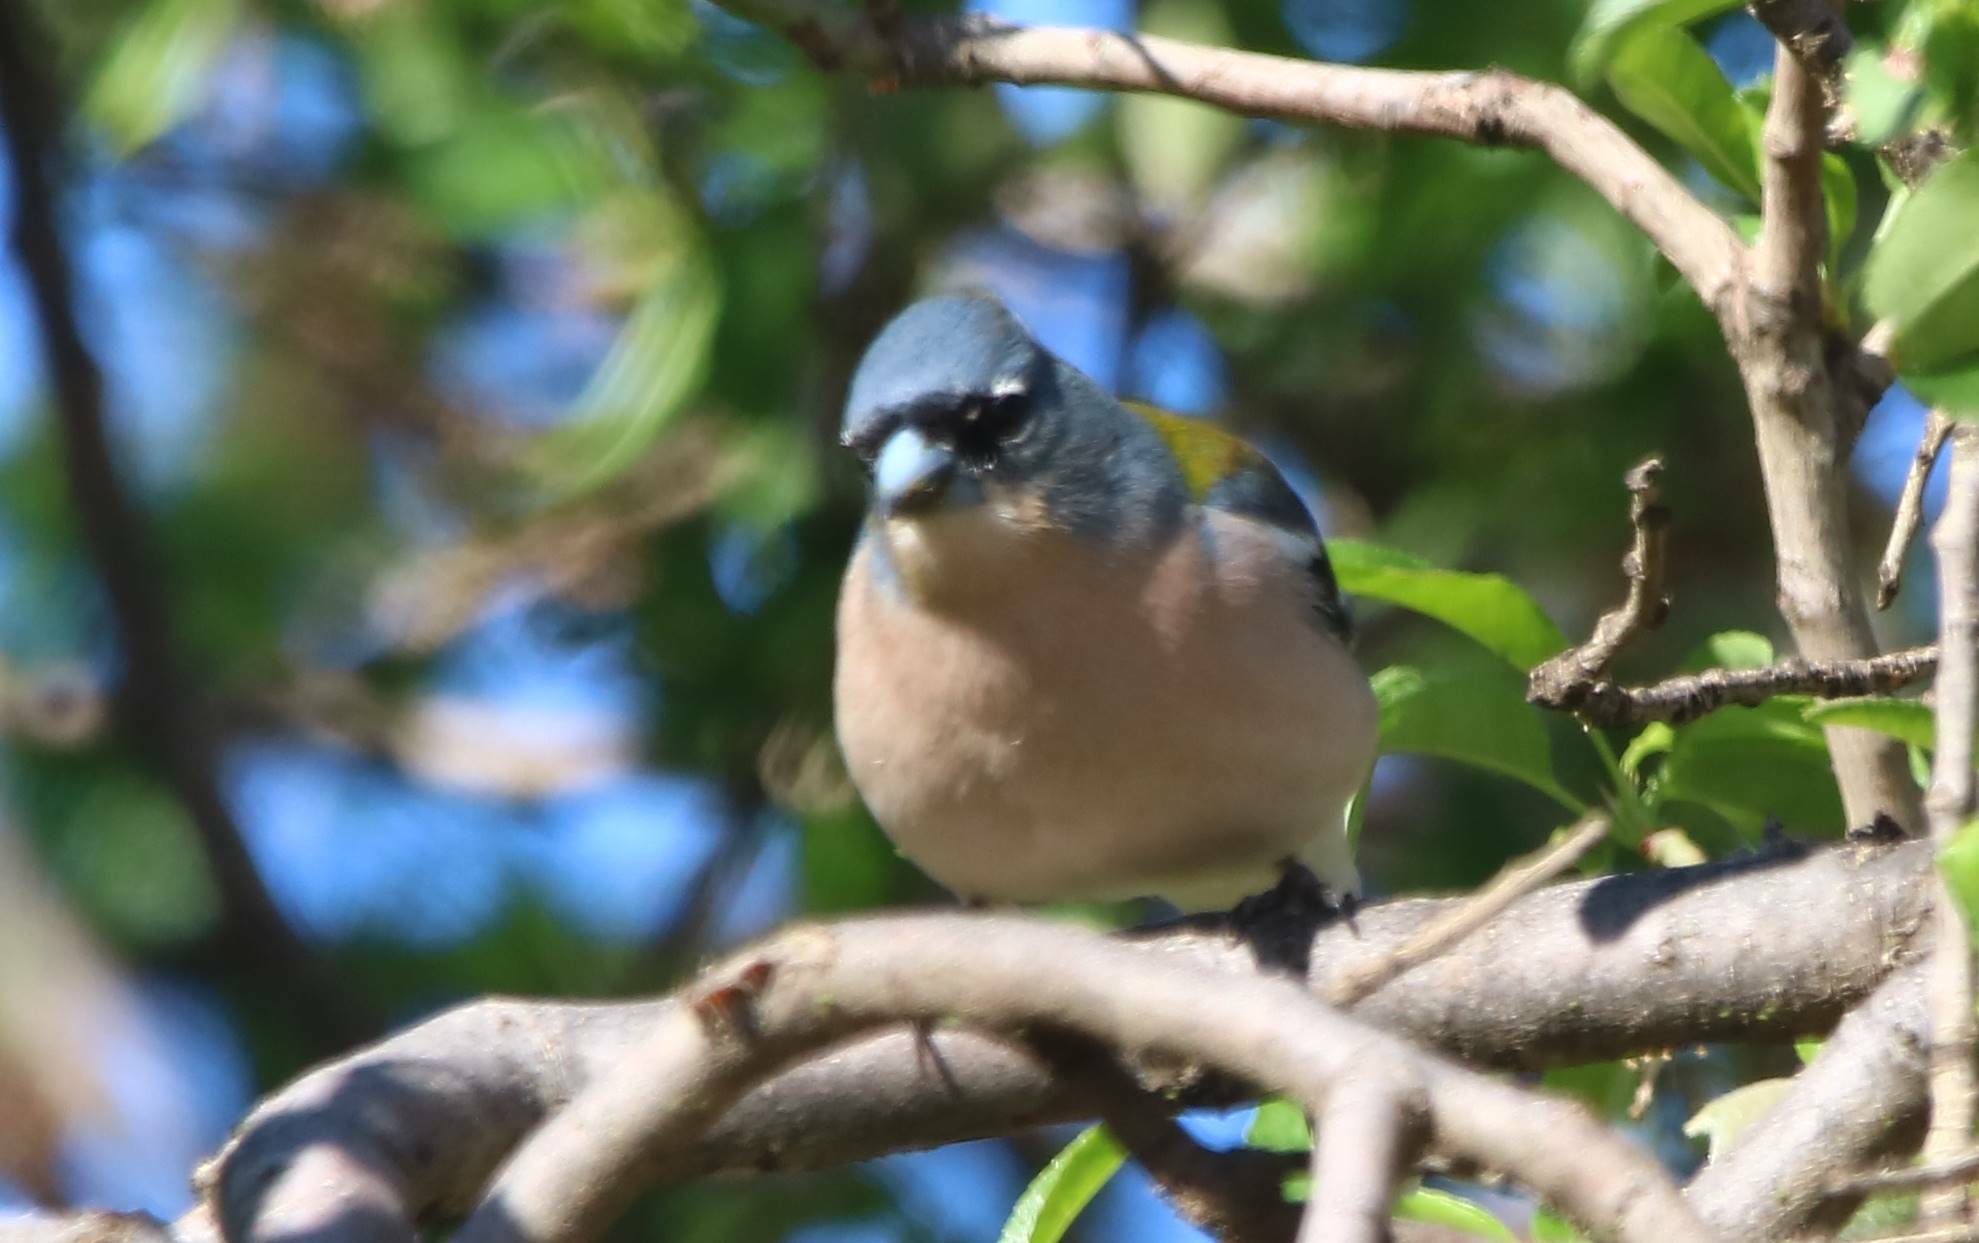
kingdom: Animalia
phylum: Chordata
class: Aves
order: Passeriformes
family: Fringillidae
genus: Fringilla
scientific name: Fringilla spodiogenys
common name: African chaffinch
